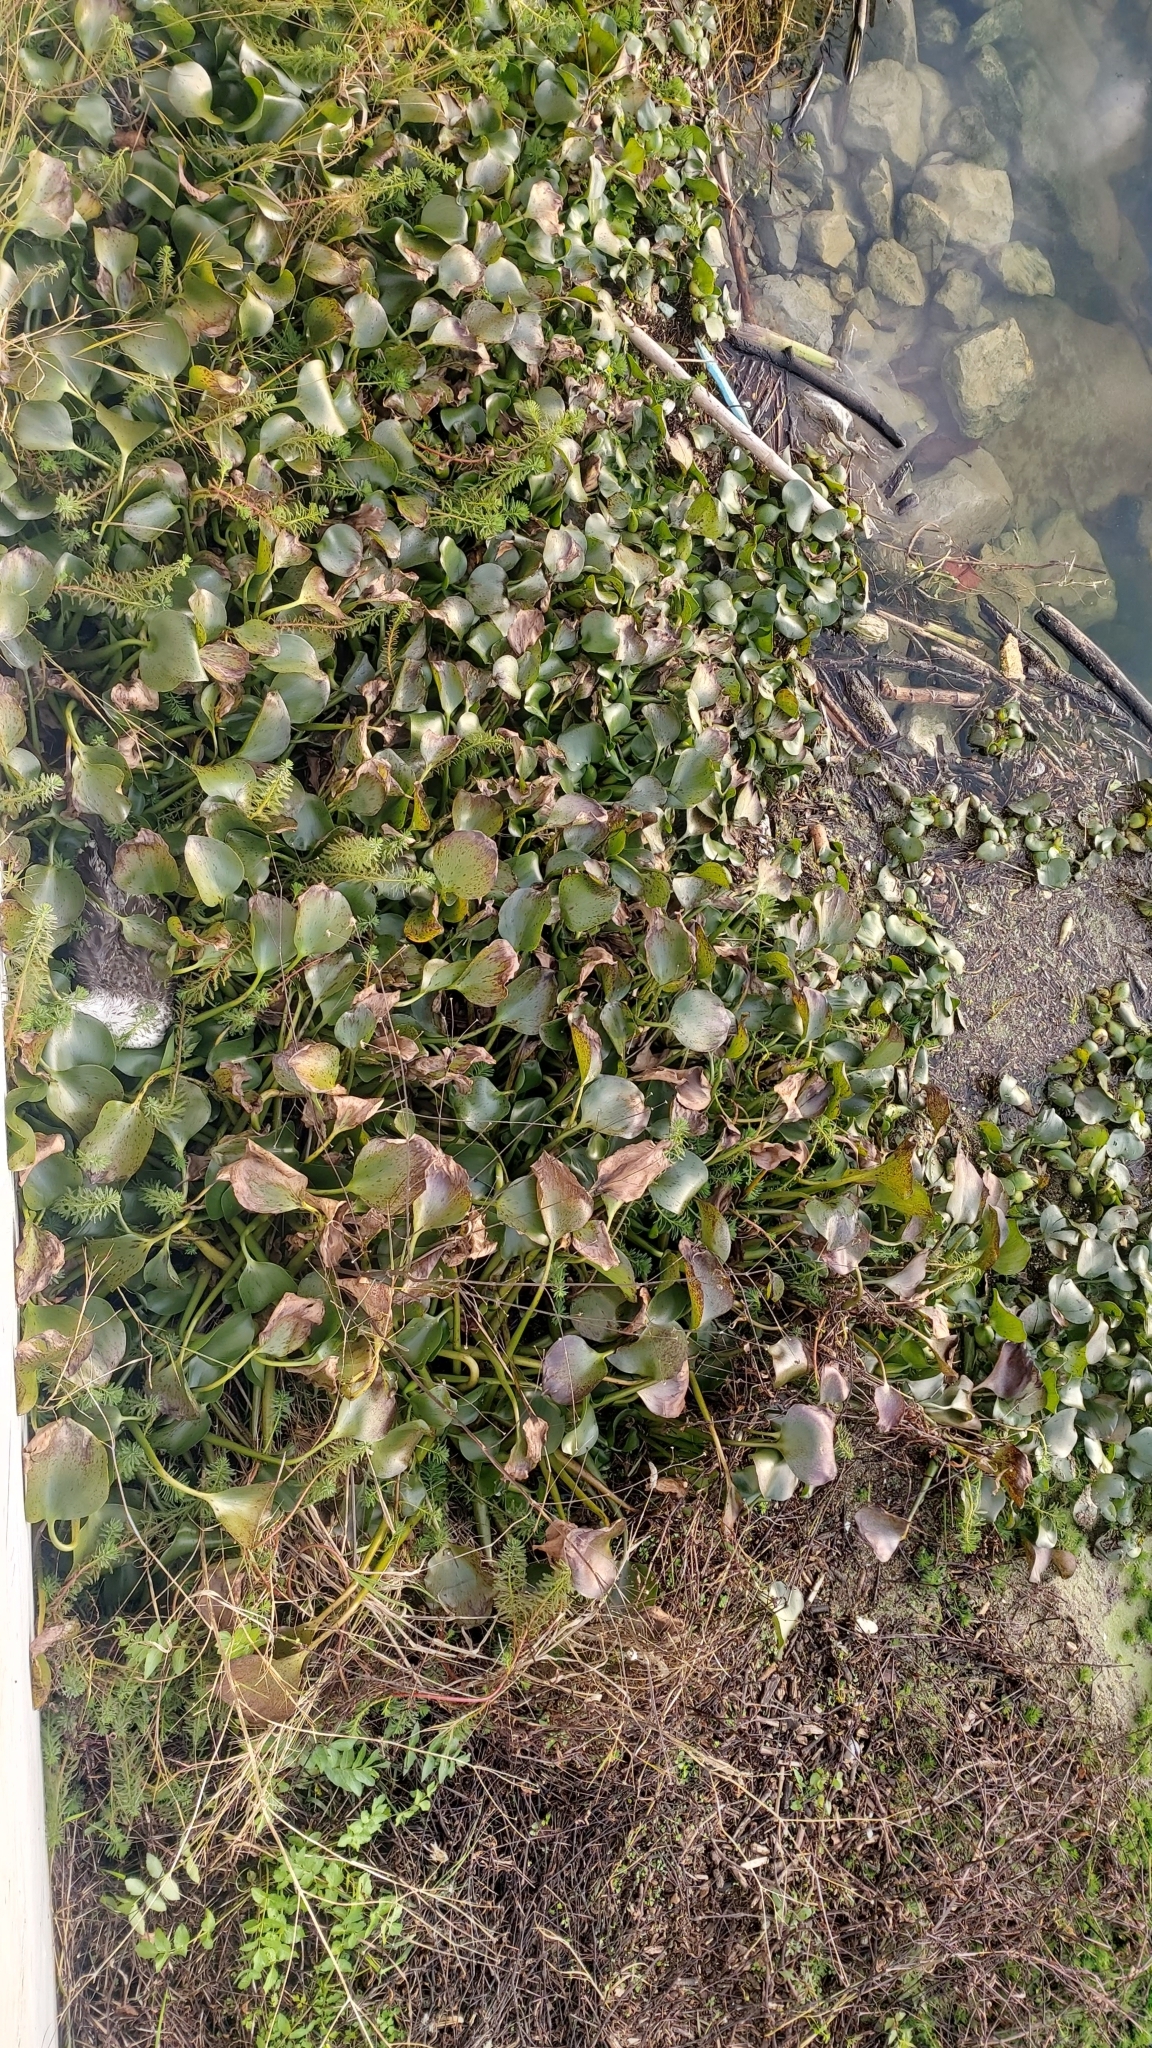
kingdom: Plantae
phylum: Tracheophyta
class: Liliopsida
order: Commelinales
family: Pontederiaceae
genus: Pontederia
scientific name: Pontederia crassipes
